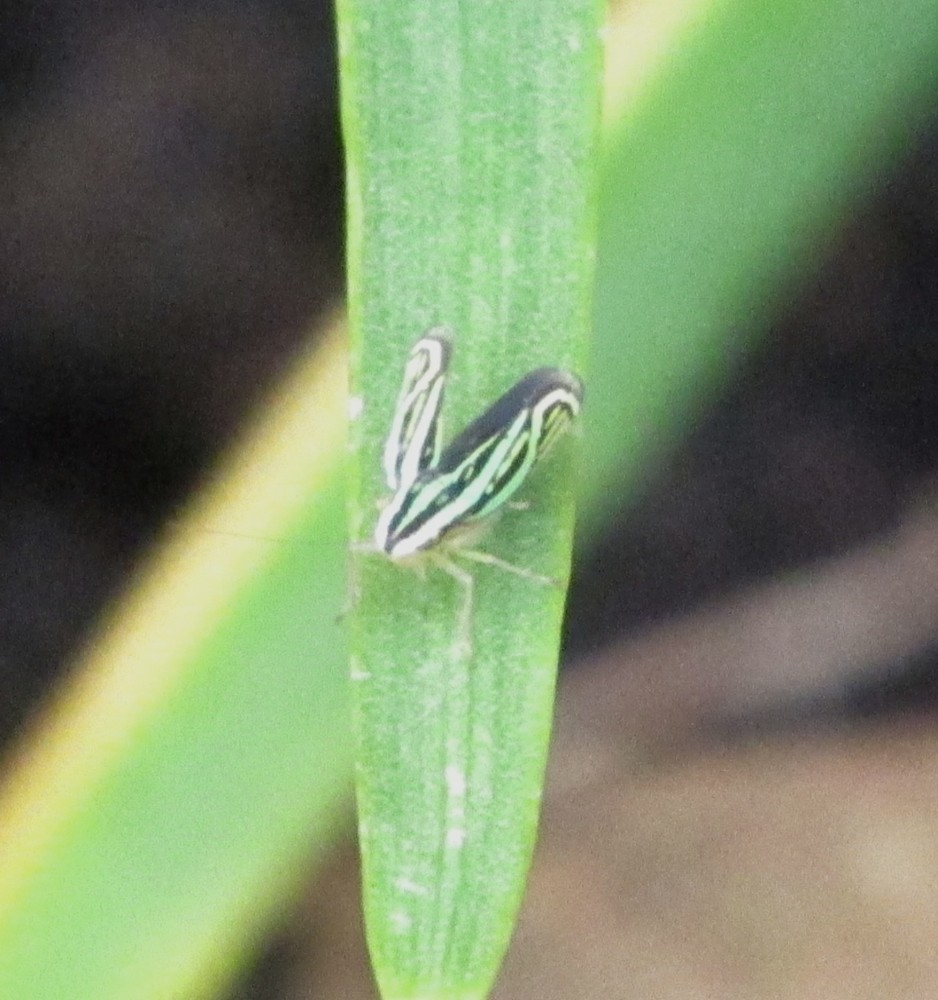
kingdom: Animalia
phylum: Arthropoda
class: Insecta
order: Hemiptera
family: Cicadellidae
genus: Sibovia
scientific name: Sibovia sagata
